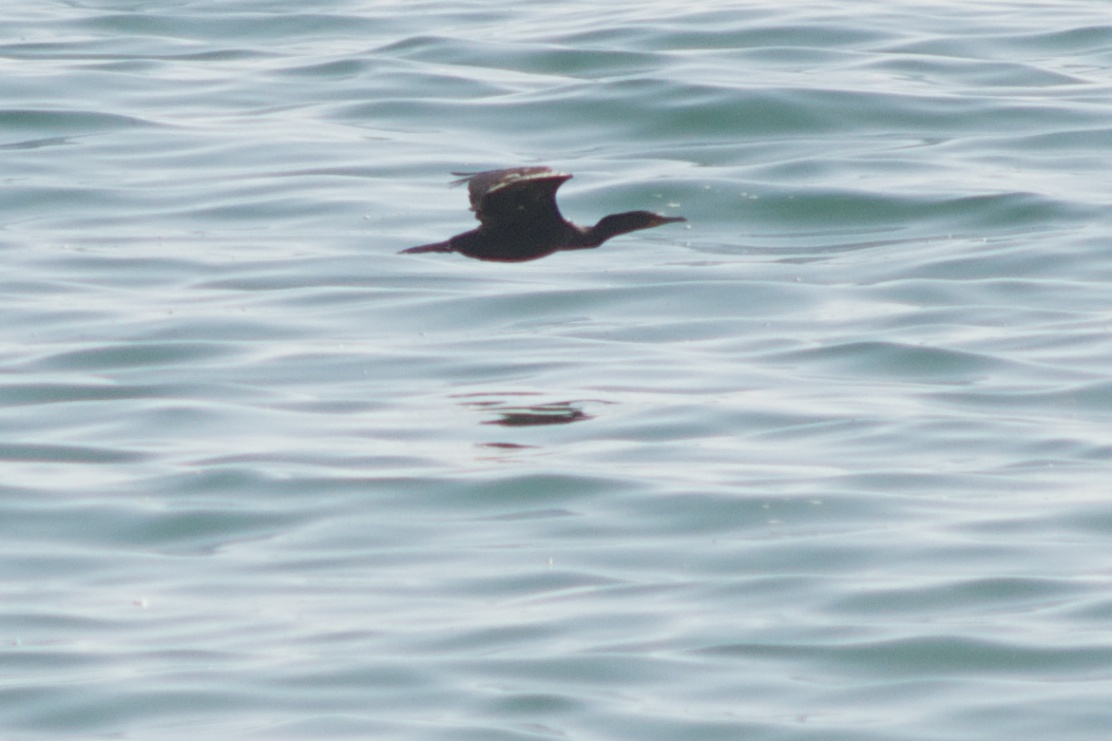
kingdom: Animalia
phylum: Chordata
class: Aves
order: Suliformes
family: Phalacrocoracidae
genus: Phalacrocorax
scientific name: Phalacrocorax auritus
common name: Double-crested cormorant
